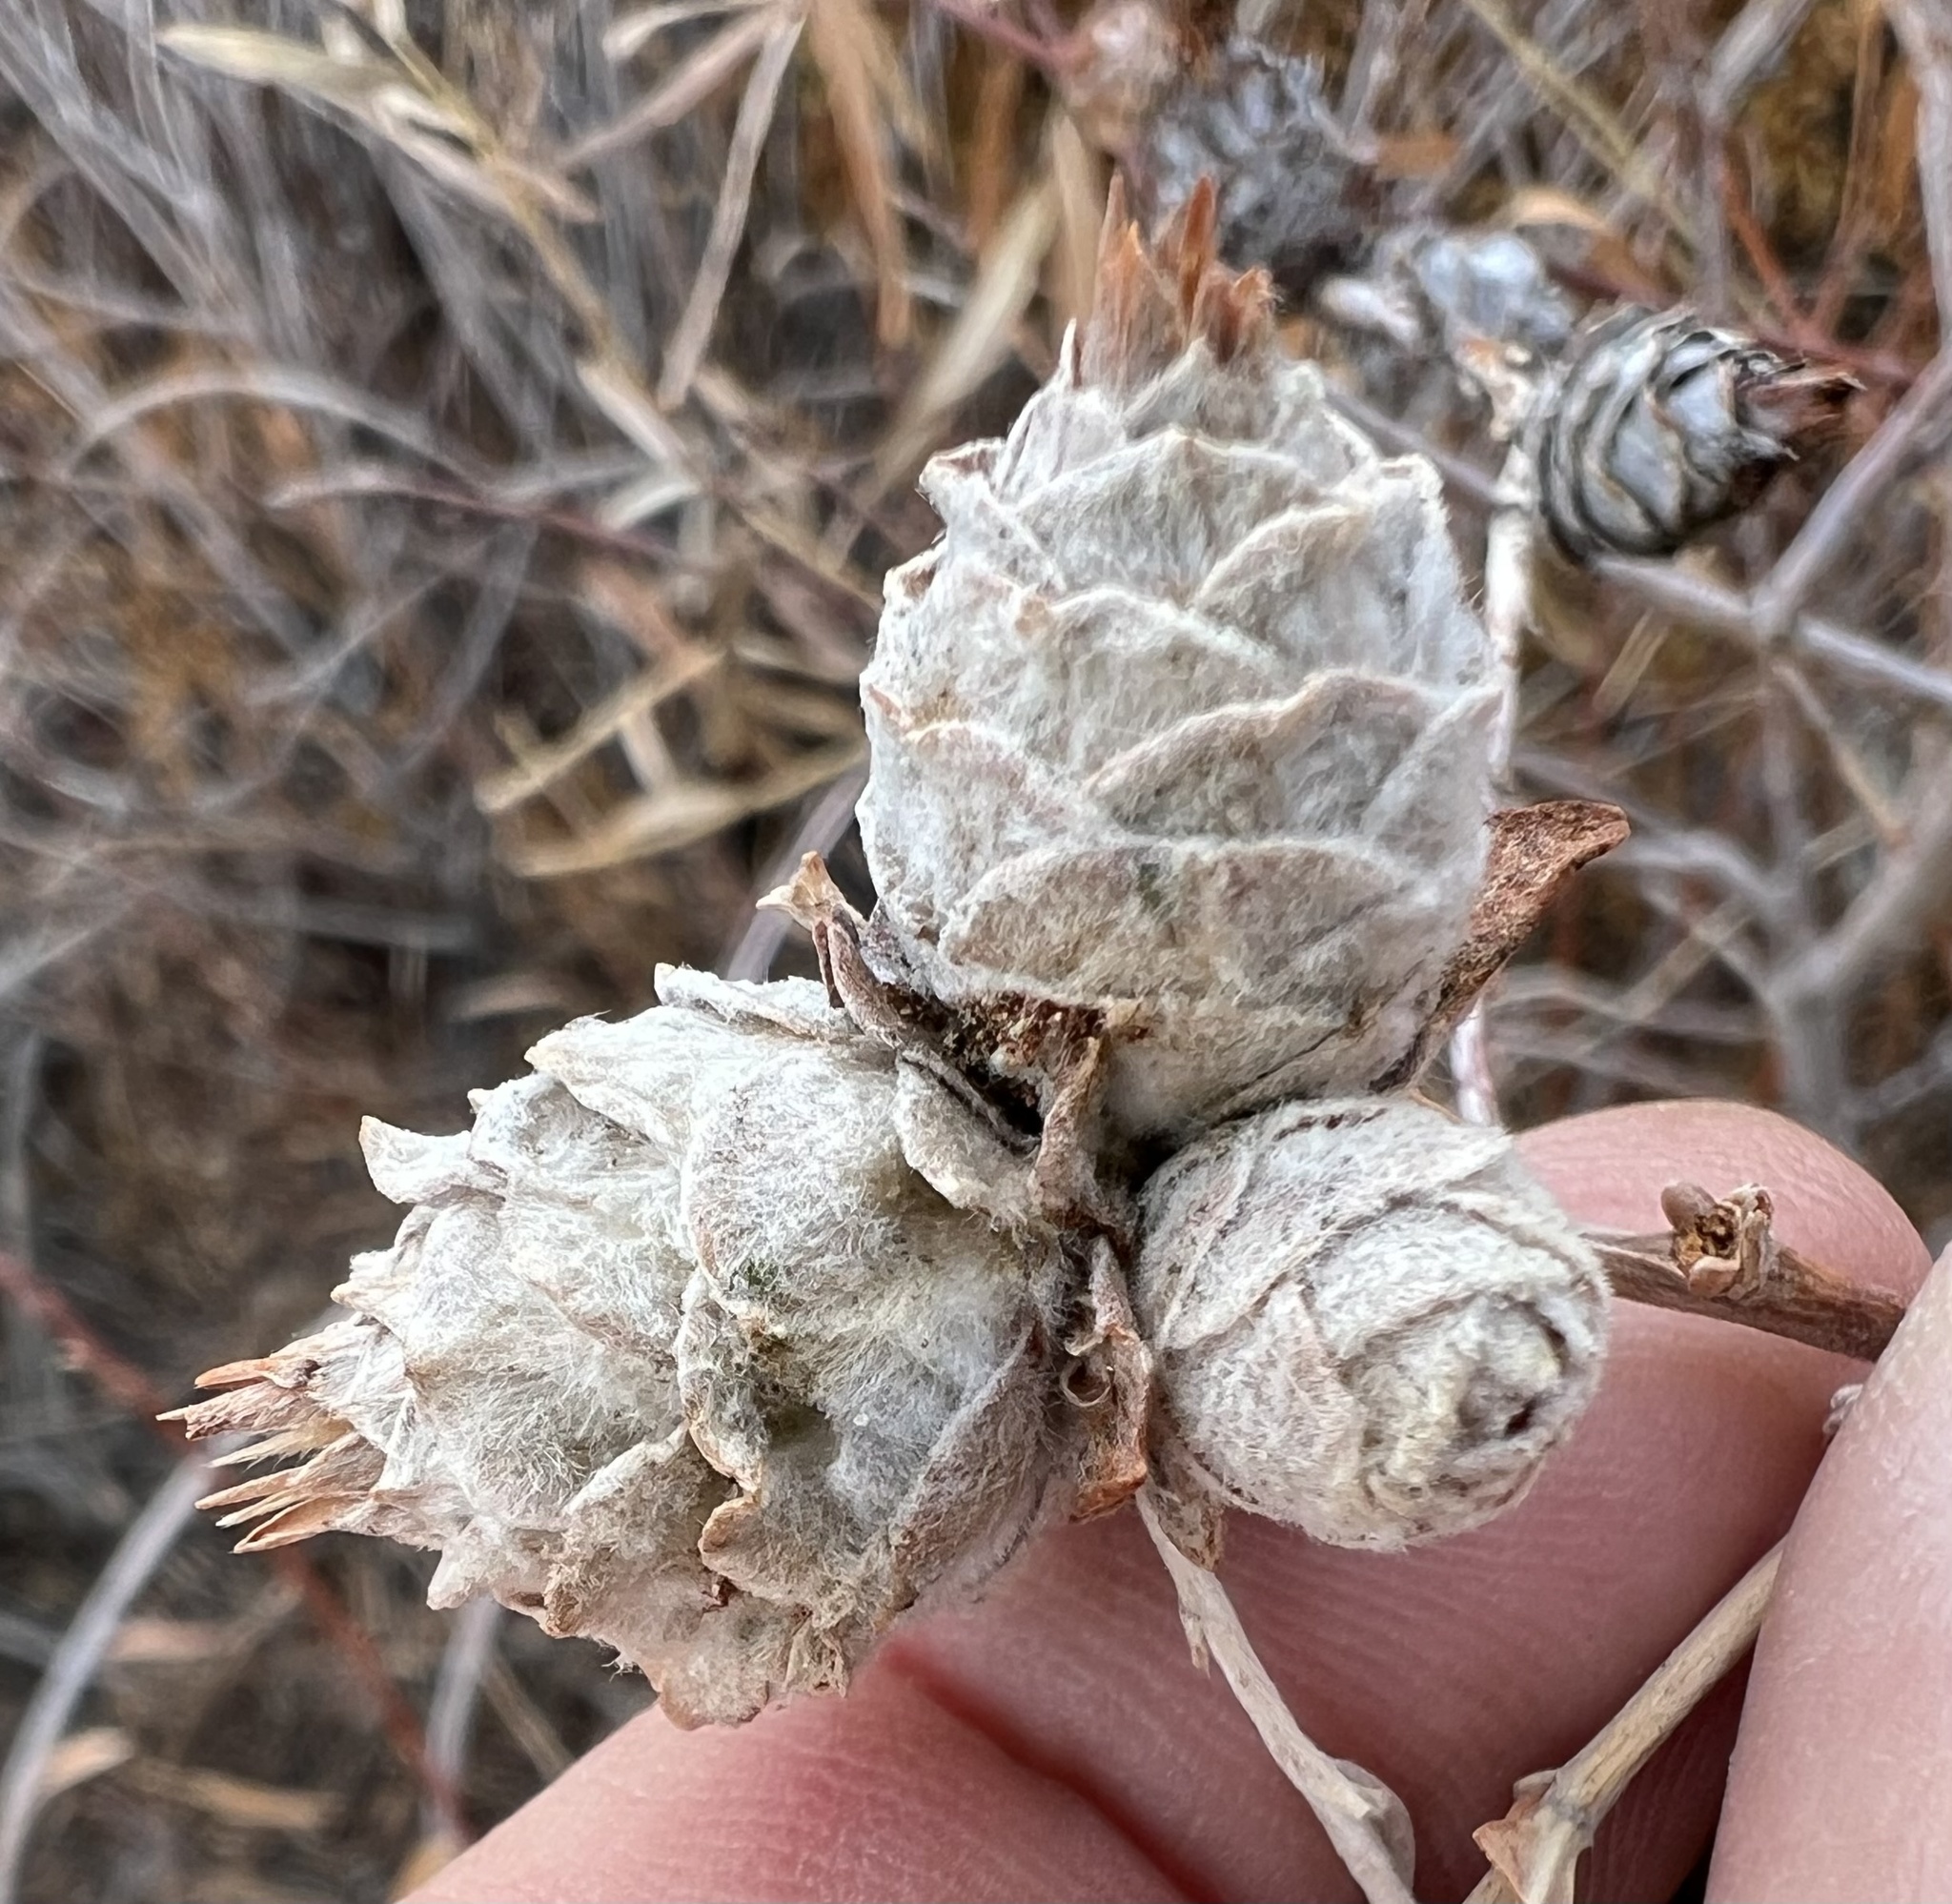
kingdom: Animalia
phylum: Arthropoda
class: Insecta
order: Diptera
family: Cecidomyiidae
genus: Rabdophaga
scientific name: Rabdophaga strobiloides
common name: Willow pinecone gall midge
